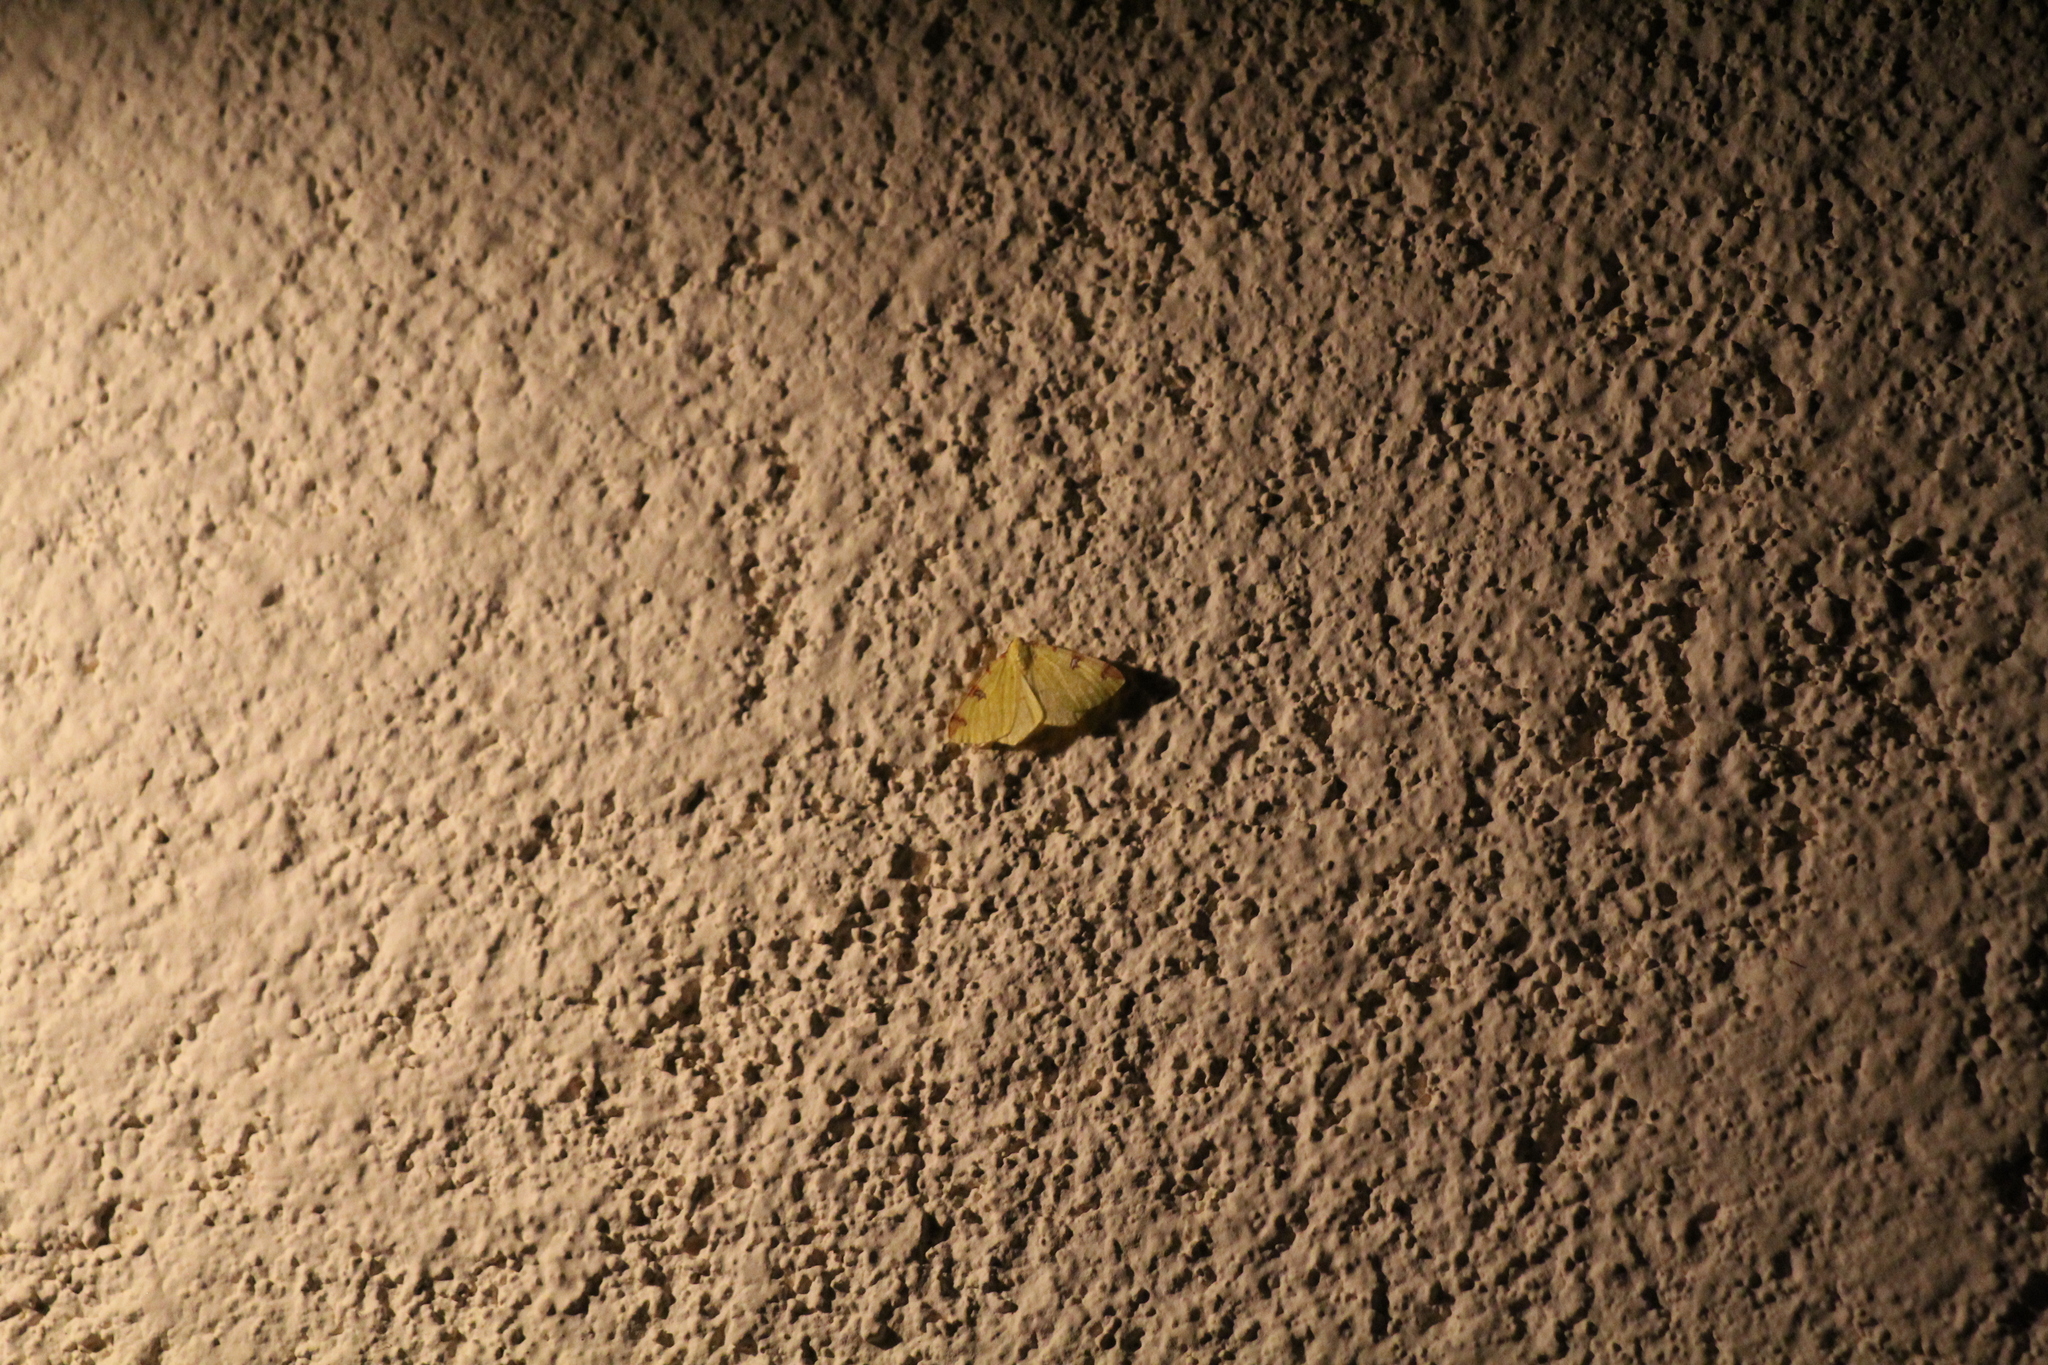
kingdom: Animalia
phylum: Arthropoda
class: Insecta
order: Lepidoptera
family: Geometridae
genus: Opisthograptis
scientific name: Opisthograptis luteolata
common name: Brimstone moth
